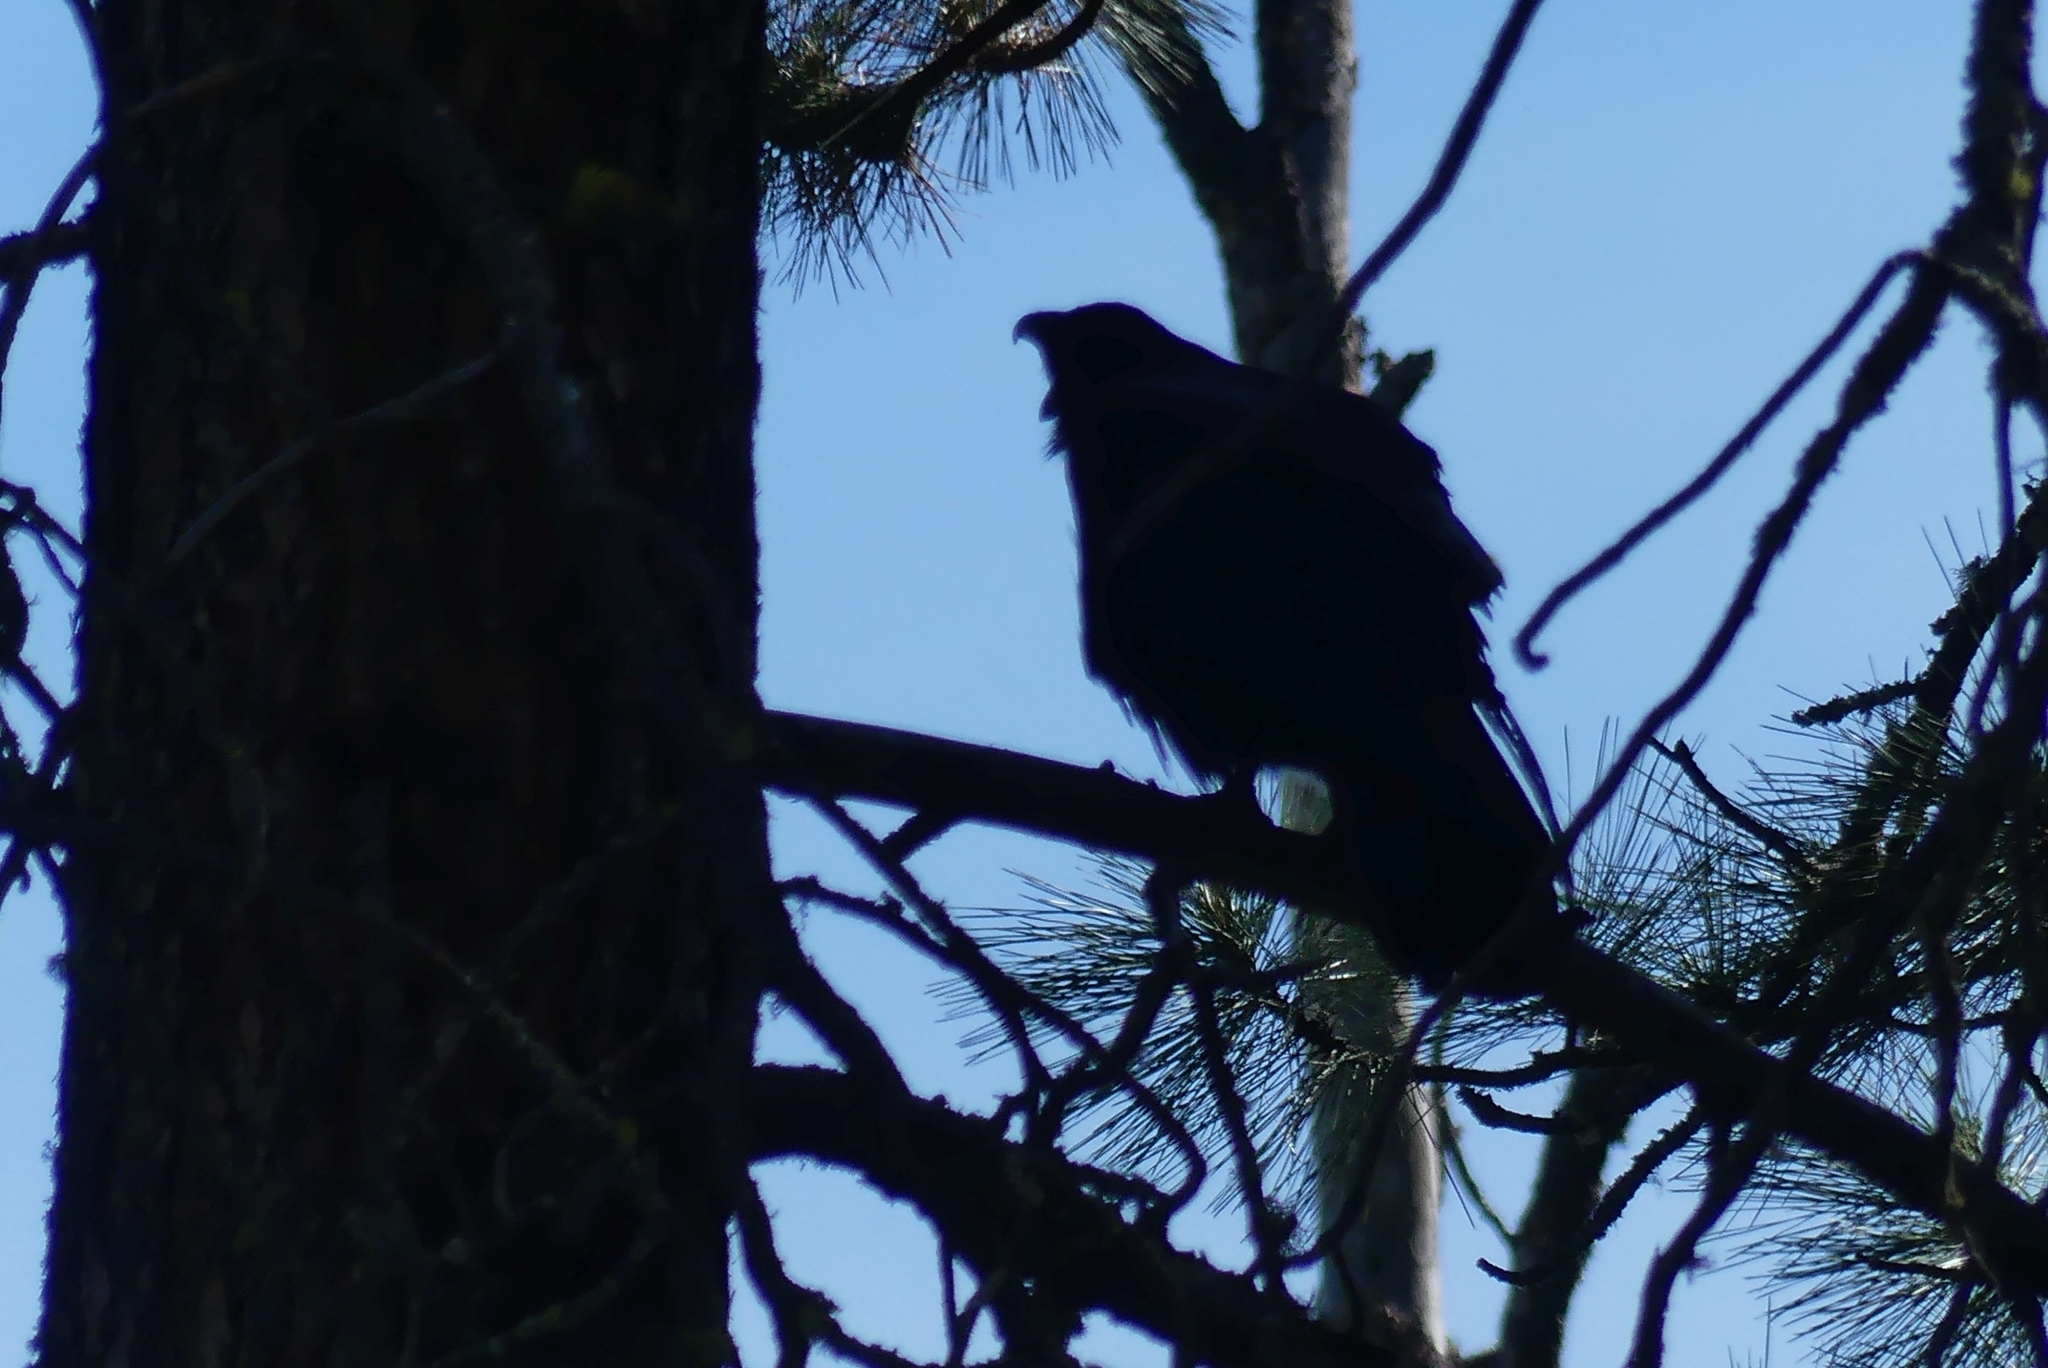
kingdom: Animalia
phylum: Chordata
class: Aves
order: Passeriformes
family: Corvidae
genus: Corvus
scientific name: Corvus corax
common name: Common raven
